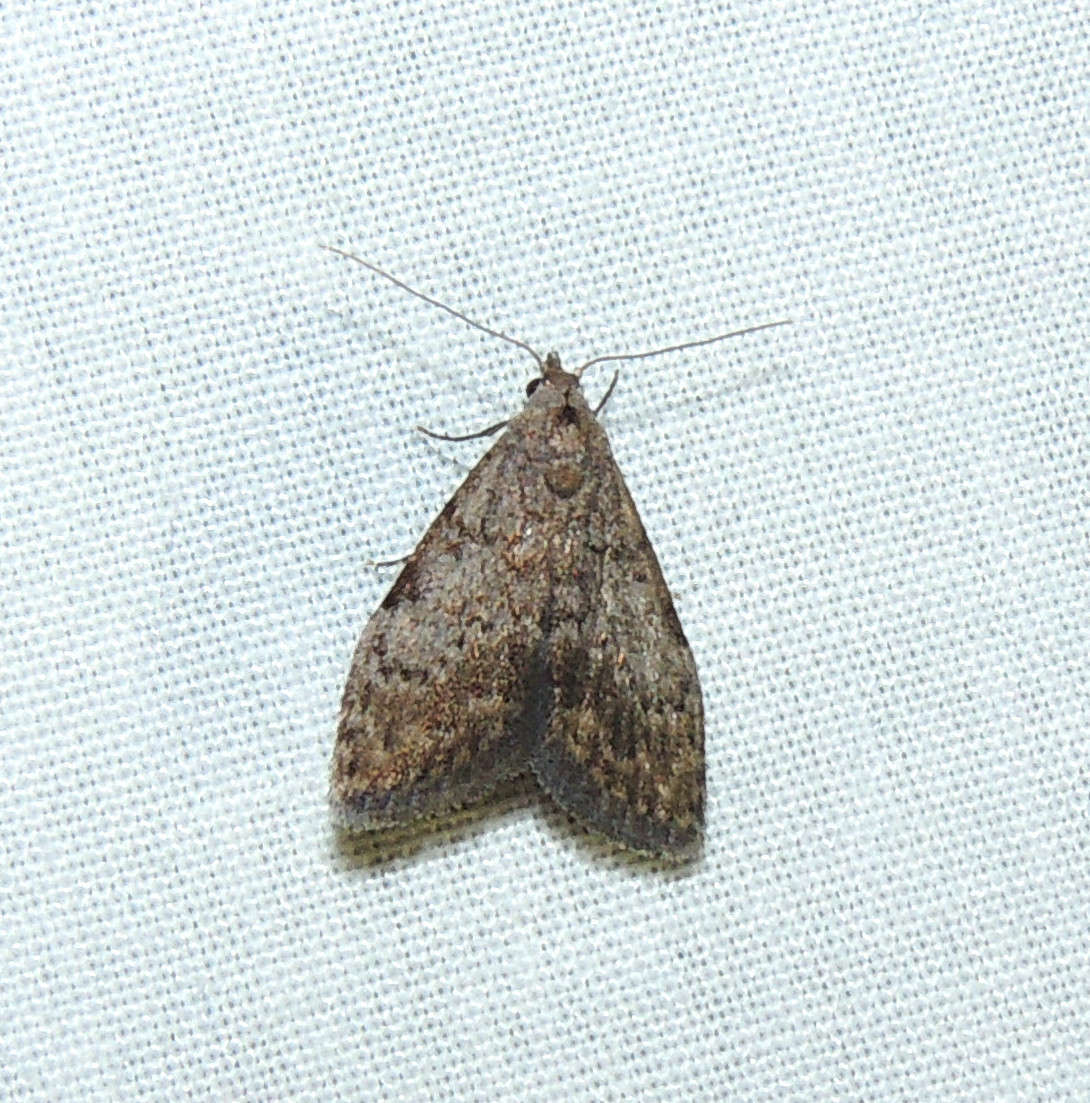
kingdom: Animalia
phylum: Arthropoda
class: Insecta
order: Lepidoptera
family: Nolidae
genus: Nola
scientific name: Nola pleurosema
